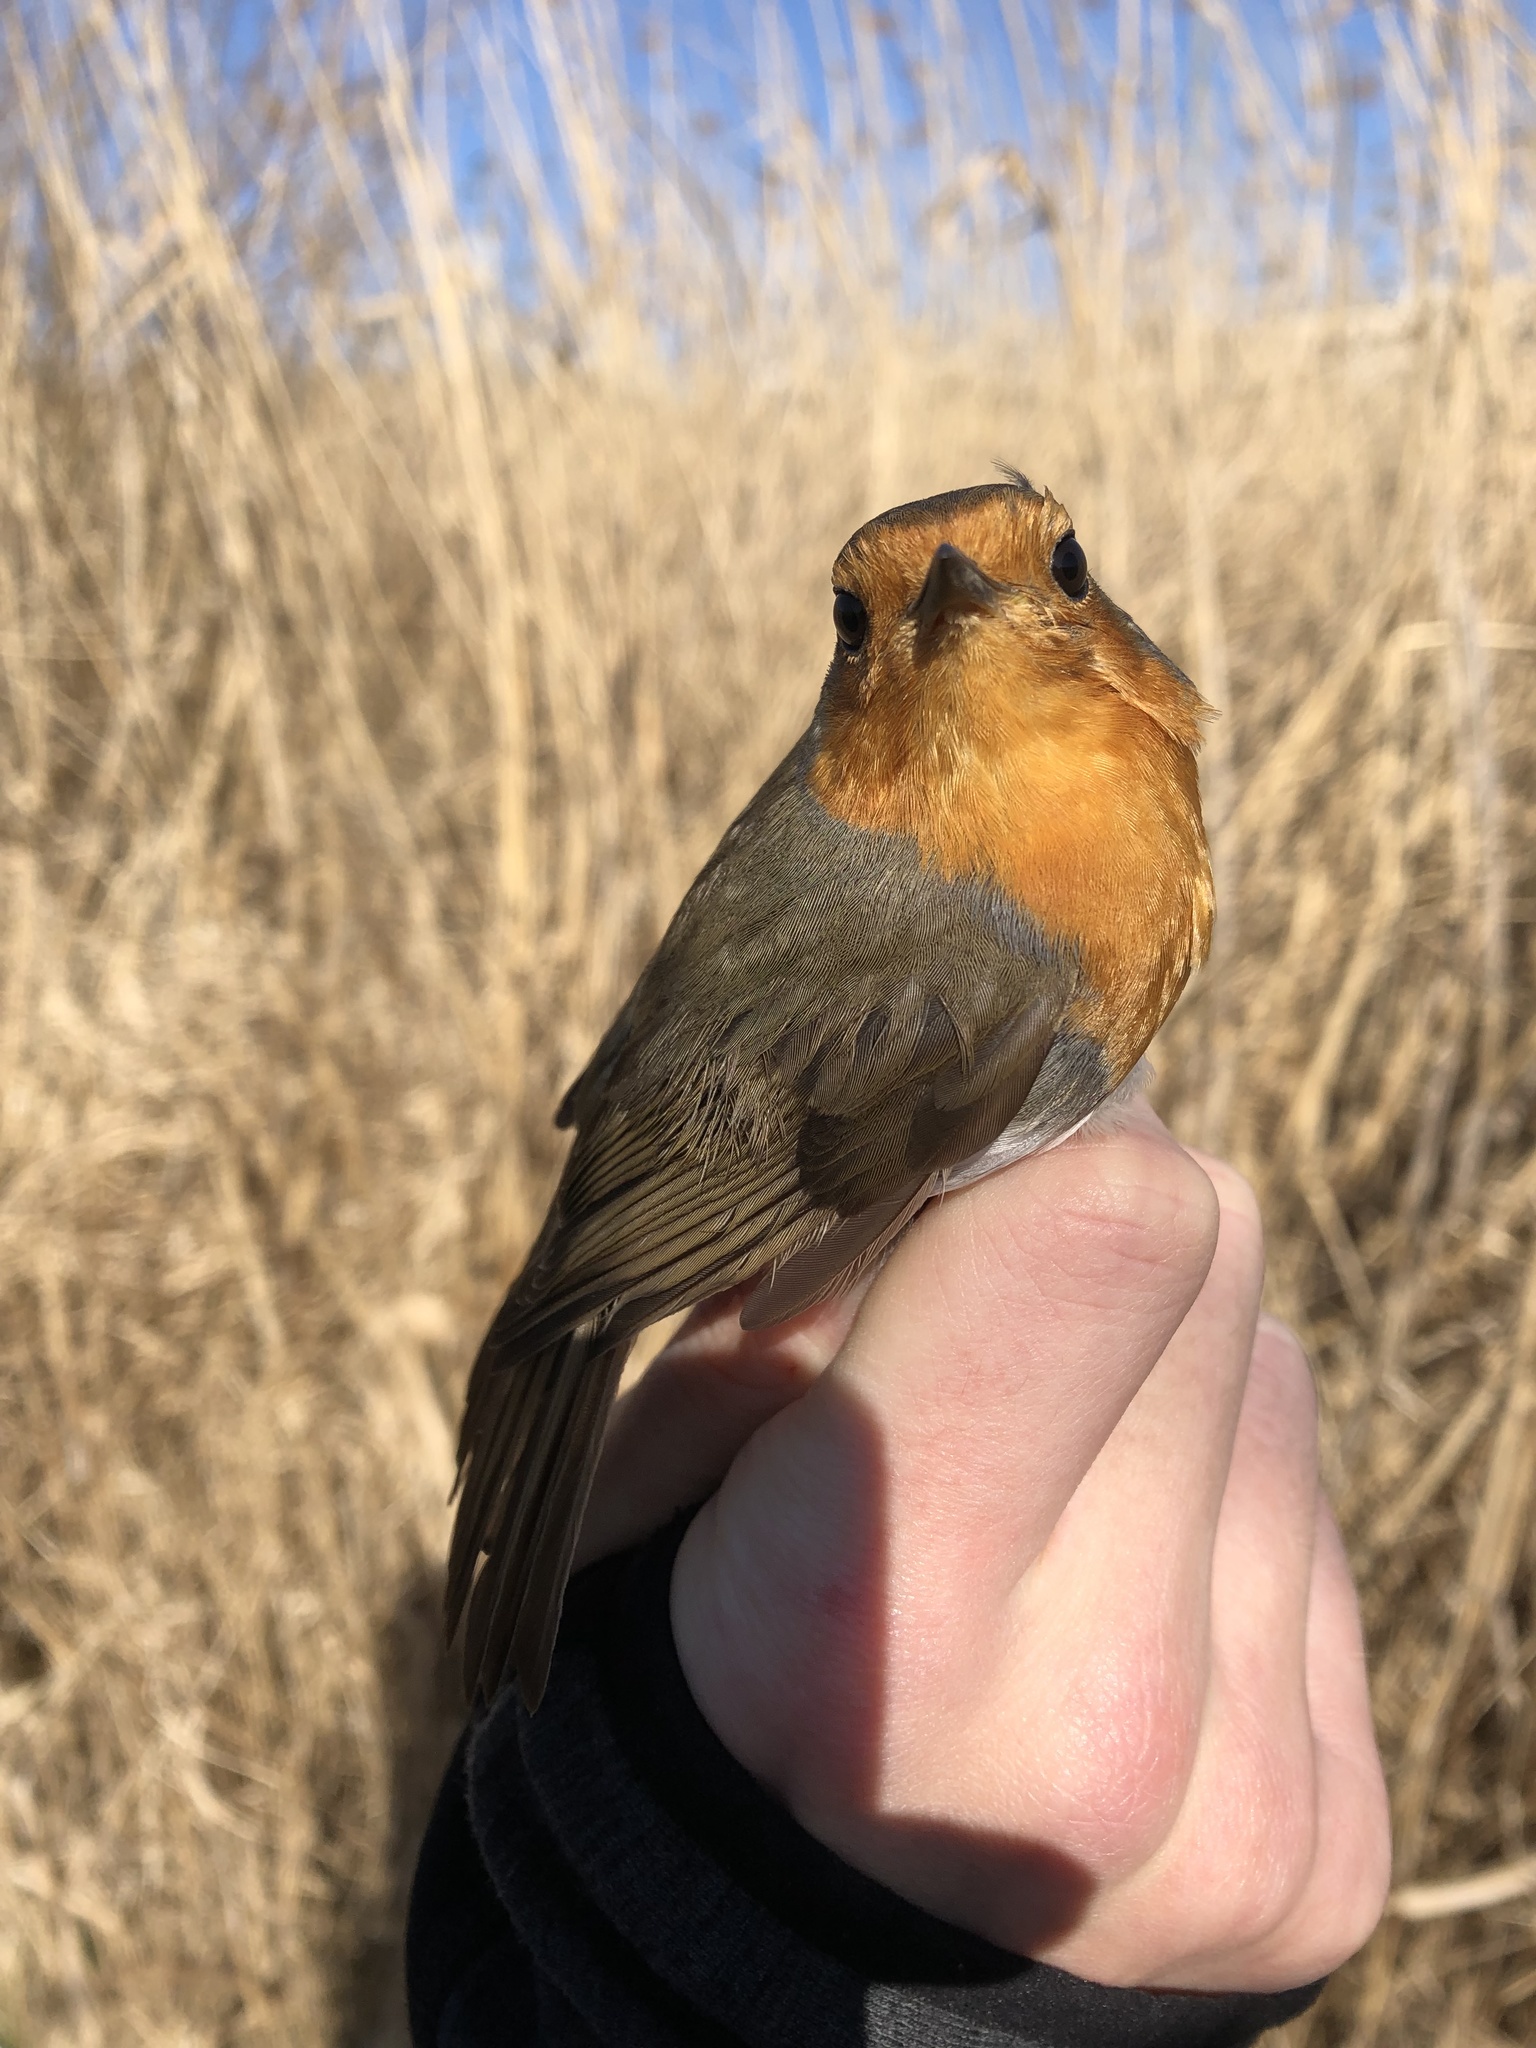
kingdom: Animalia
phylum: Chordata
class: Aves
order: Passeriformes
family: Muscicapidae
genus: Erithacus
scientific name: Erithacus rubecula
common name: European robin
